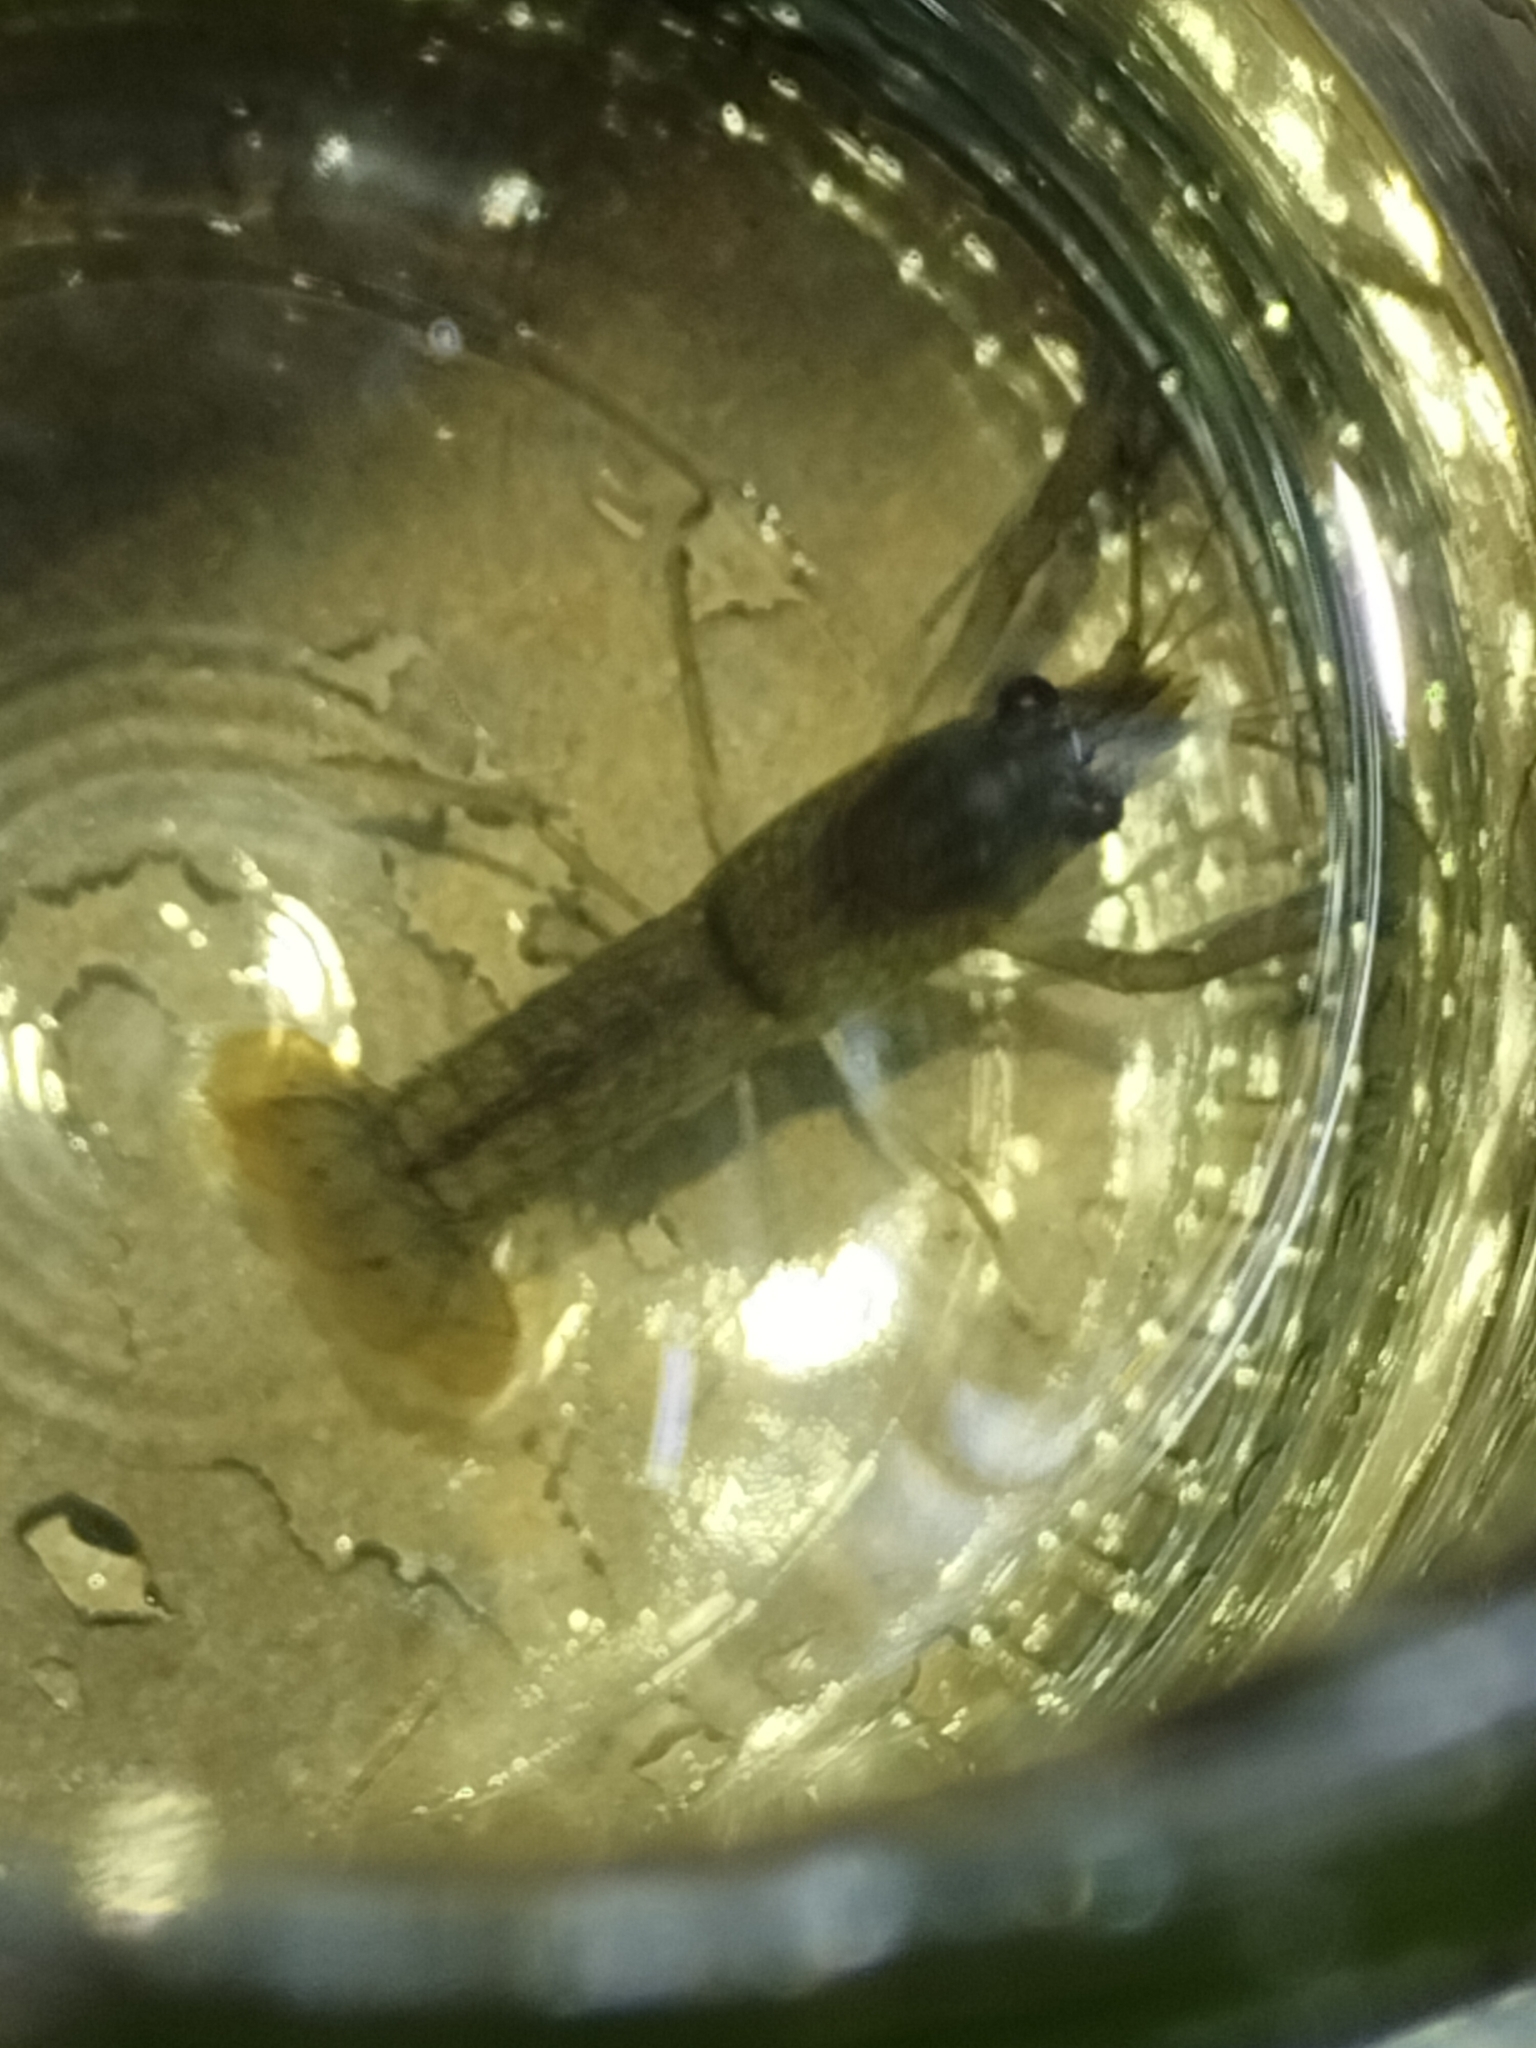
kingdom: Animalia
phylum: Arthropoda
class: Malacostraca
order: Decapoda
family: Parastacidae
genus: Cherax
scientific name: Cherax quadricarinatus
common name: Redclaw
